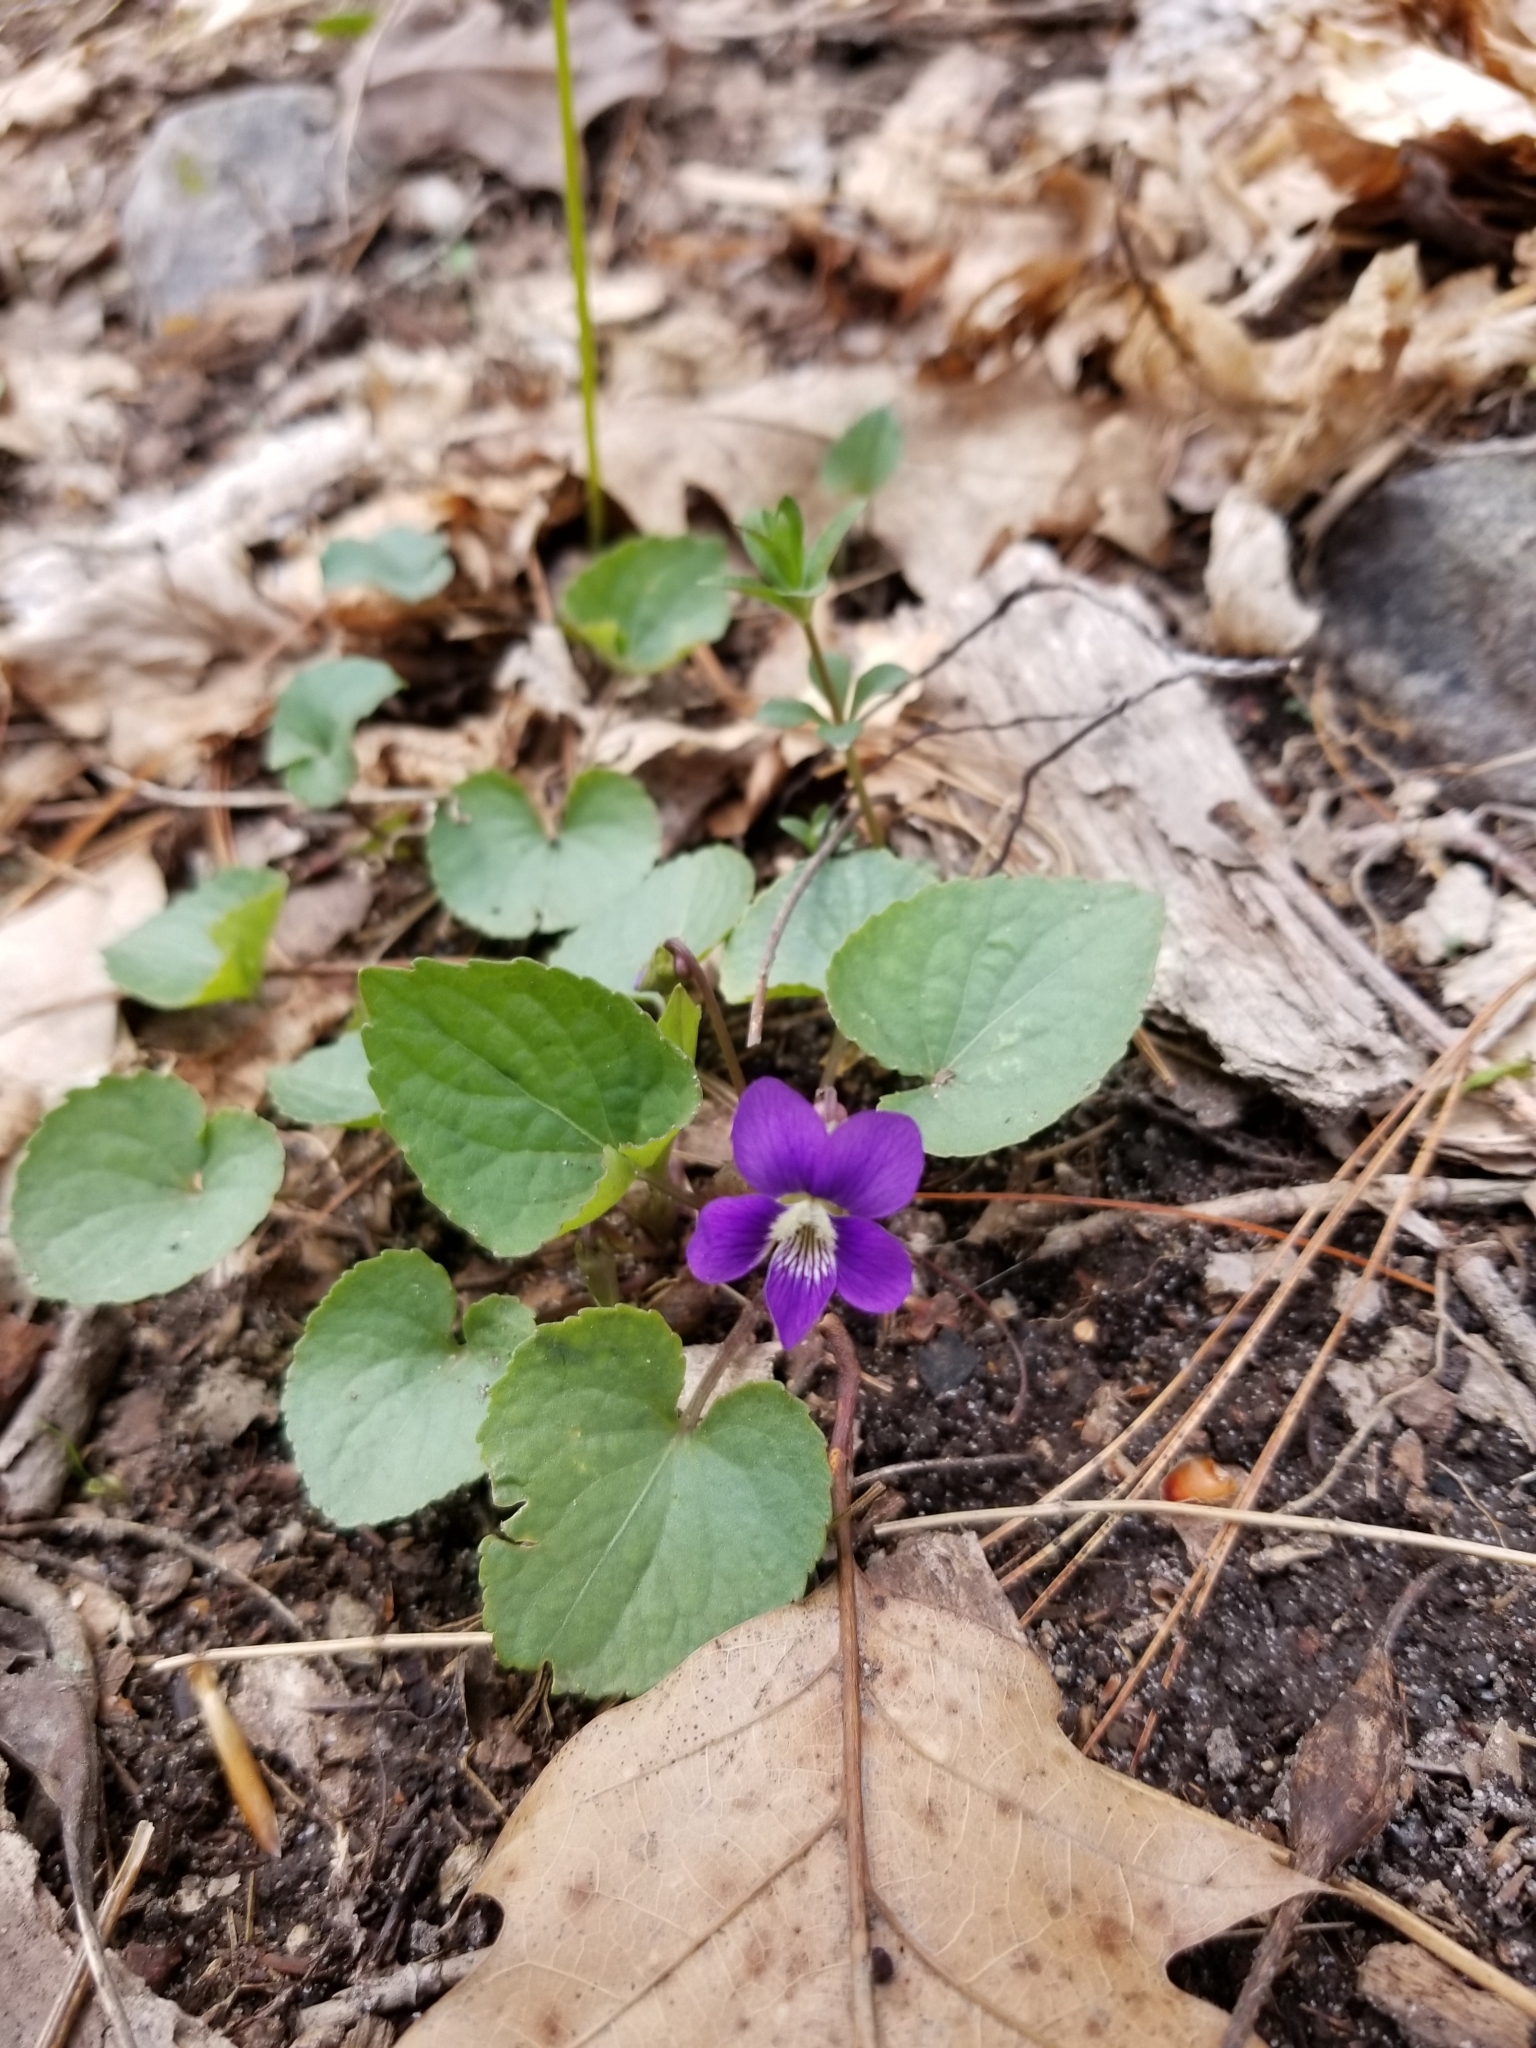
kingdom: Plantae
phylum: Tracheophyta
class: Magnoliopsida
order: Malpighiales
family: Violaceae
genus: Viola
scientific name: Viola sororia
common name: Dooryard violet
